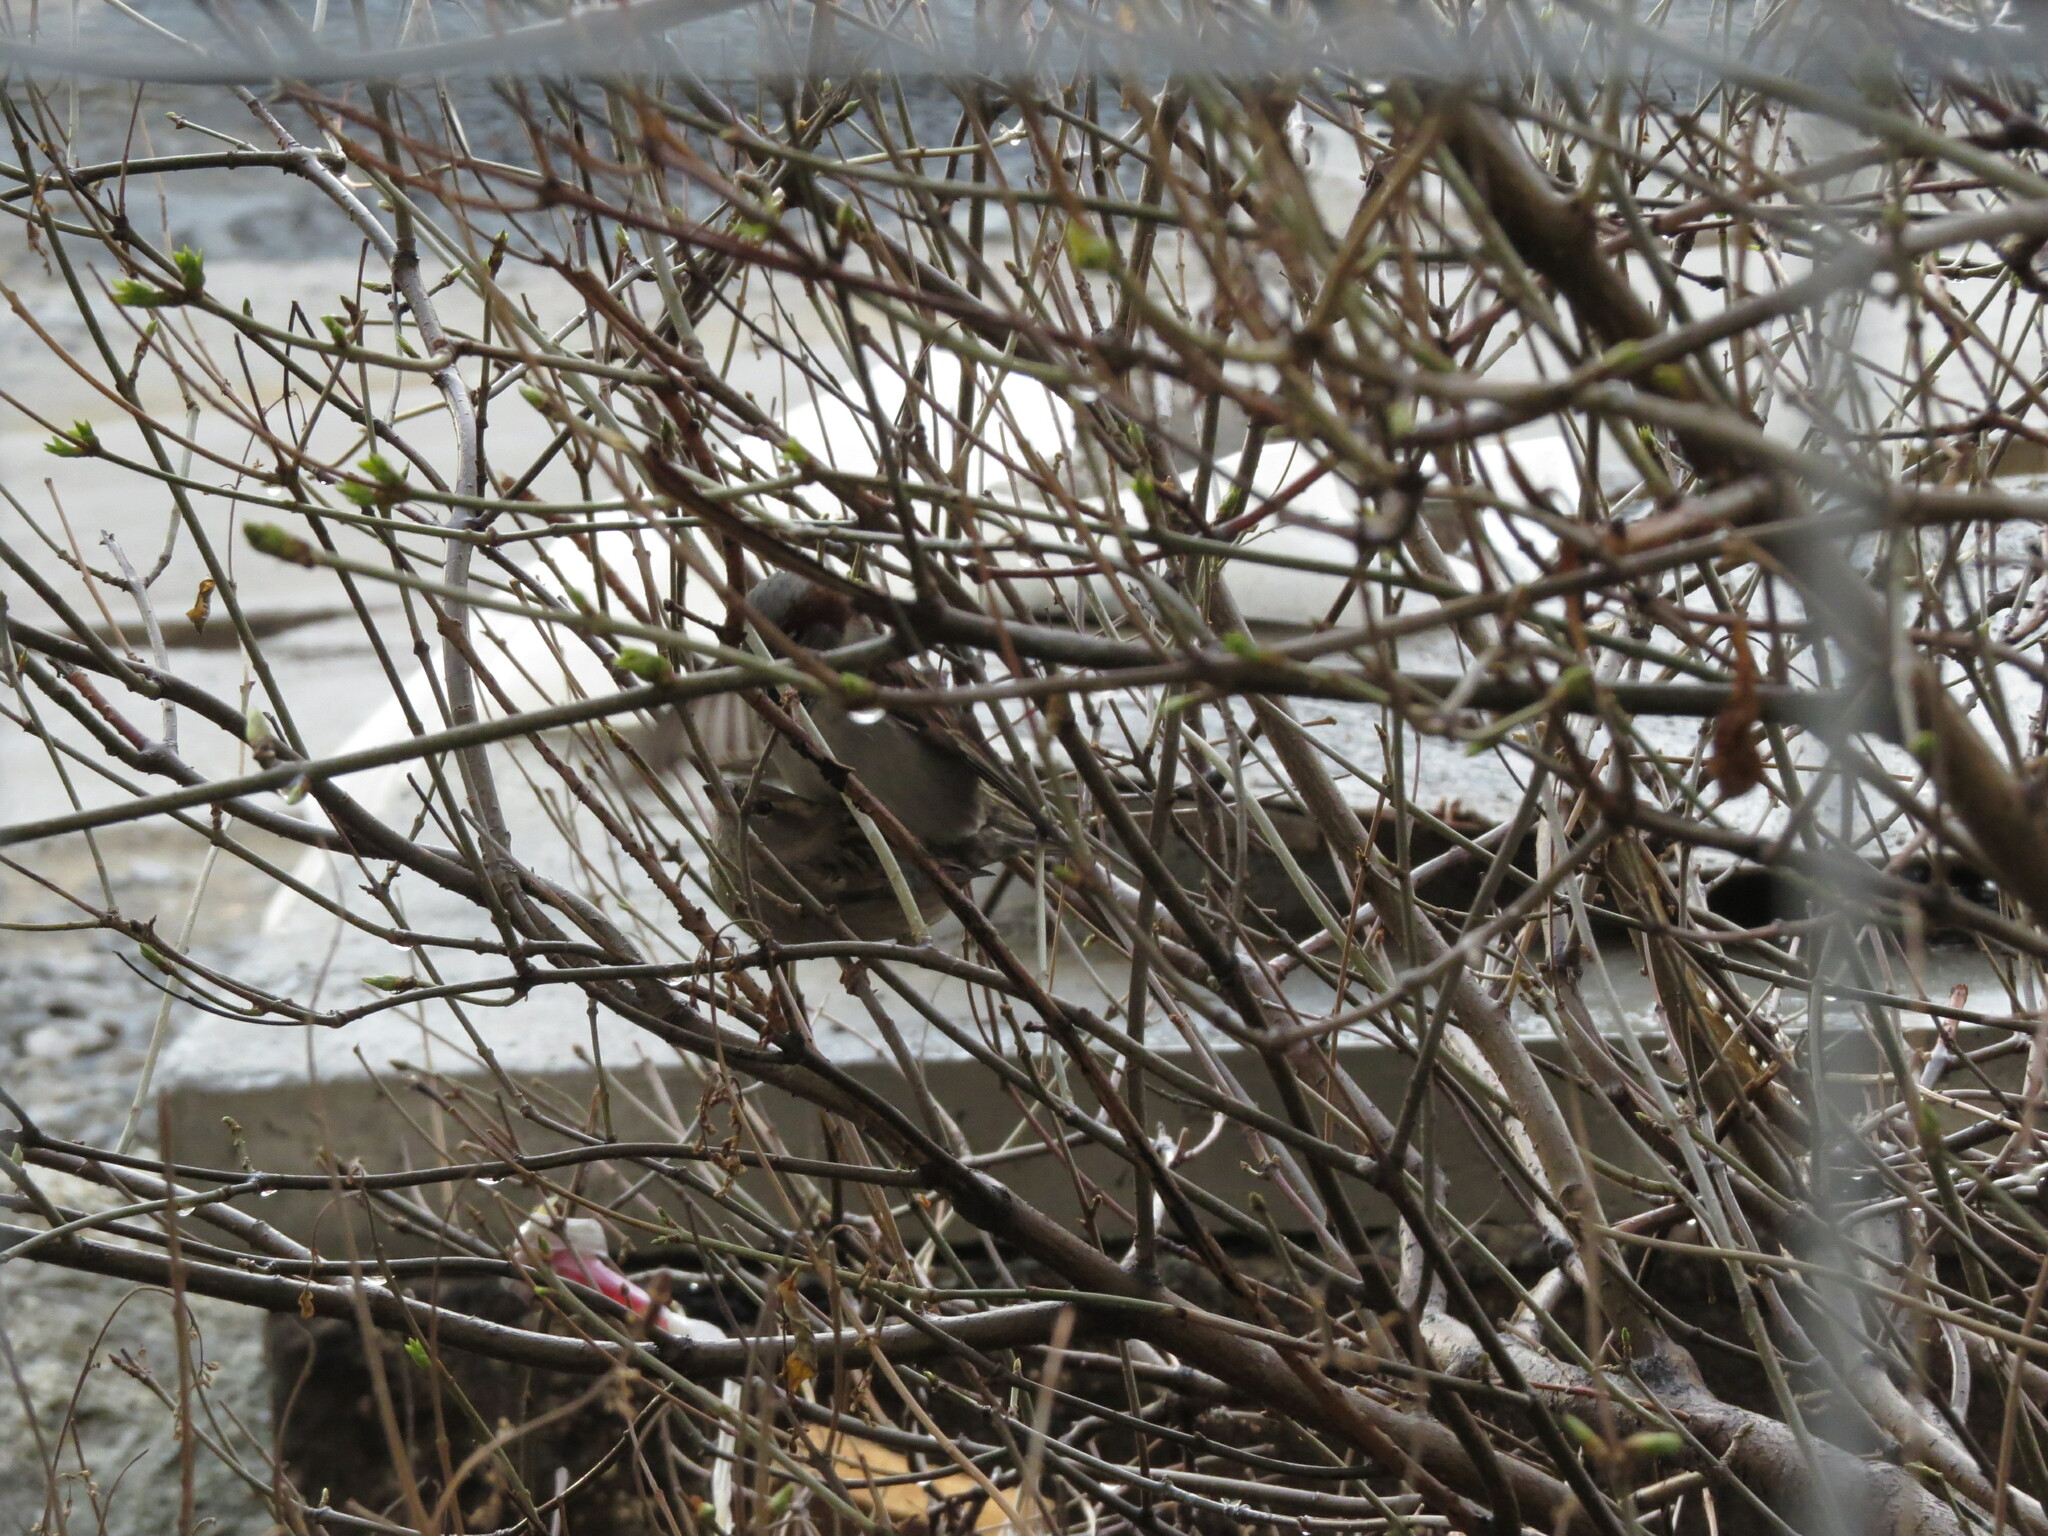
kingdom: Animalia
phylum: Chordata
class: Aves
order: Passeriformes
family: Passeridae
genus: Passer
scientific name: Passer domesticus
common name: House sparrow
